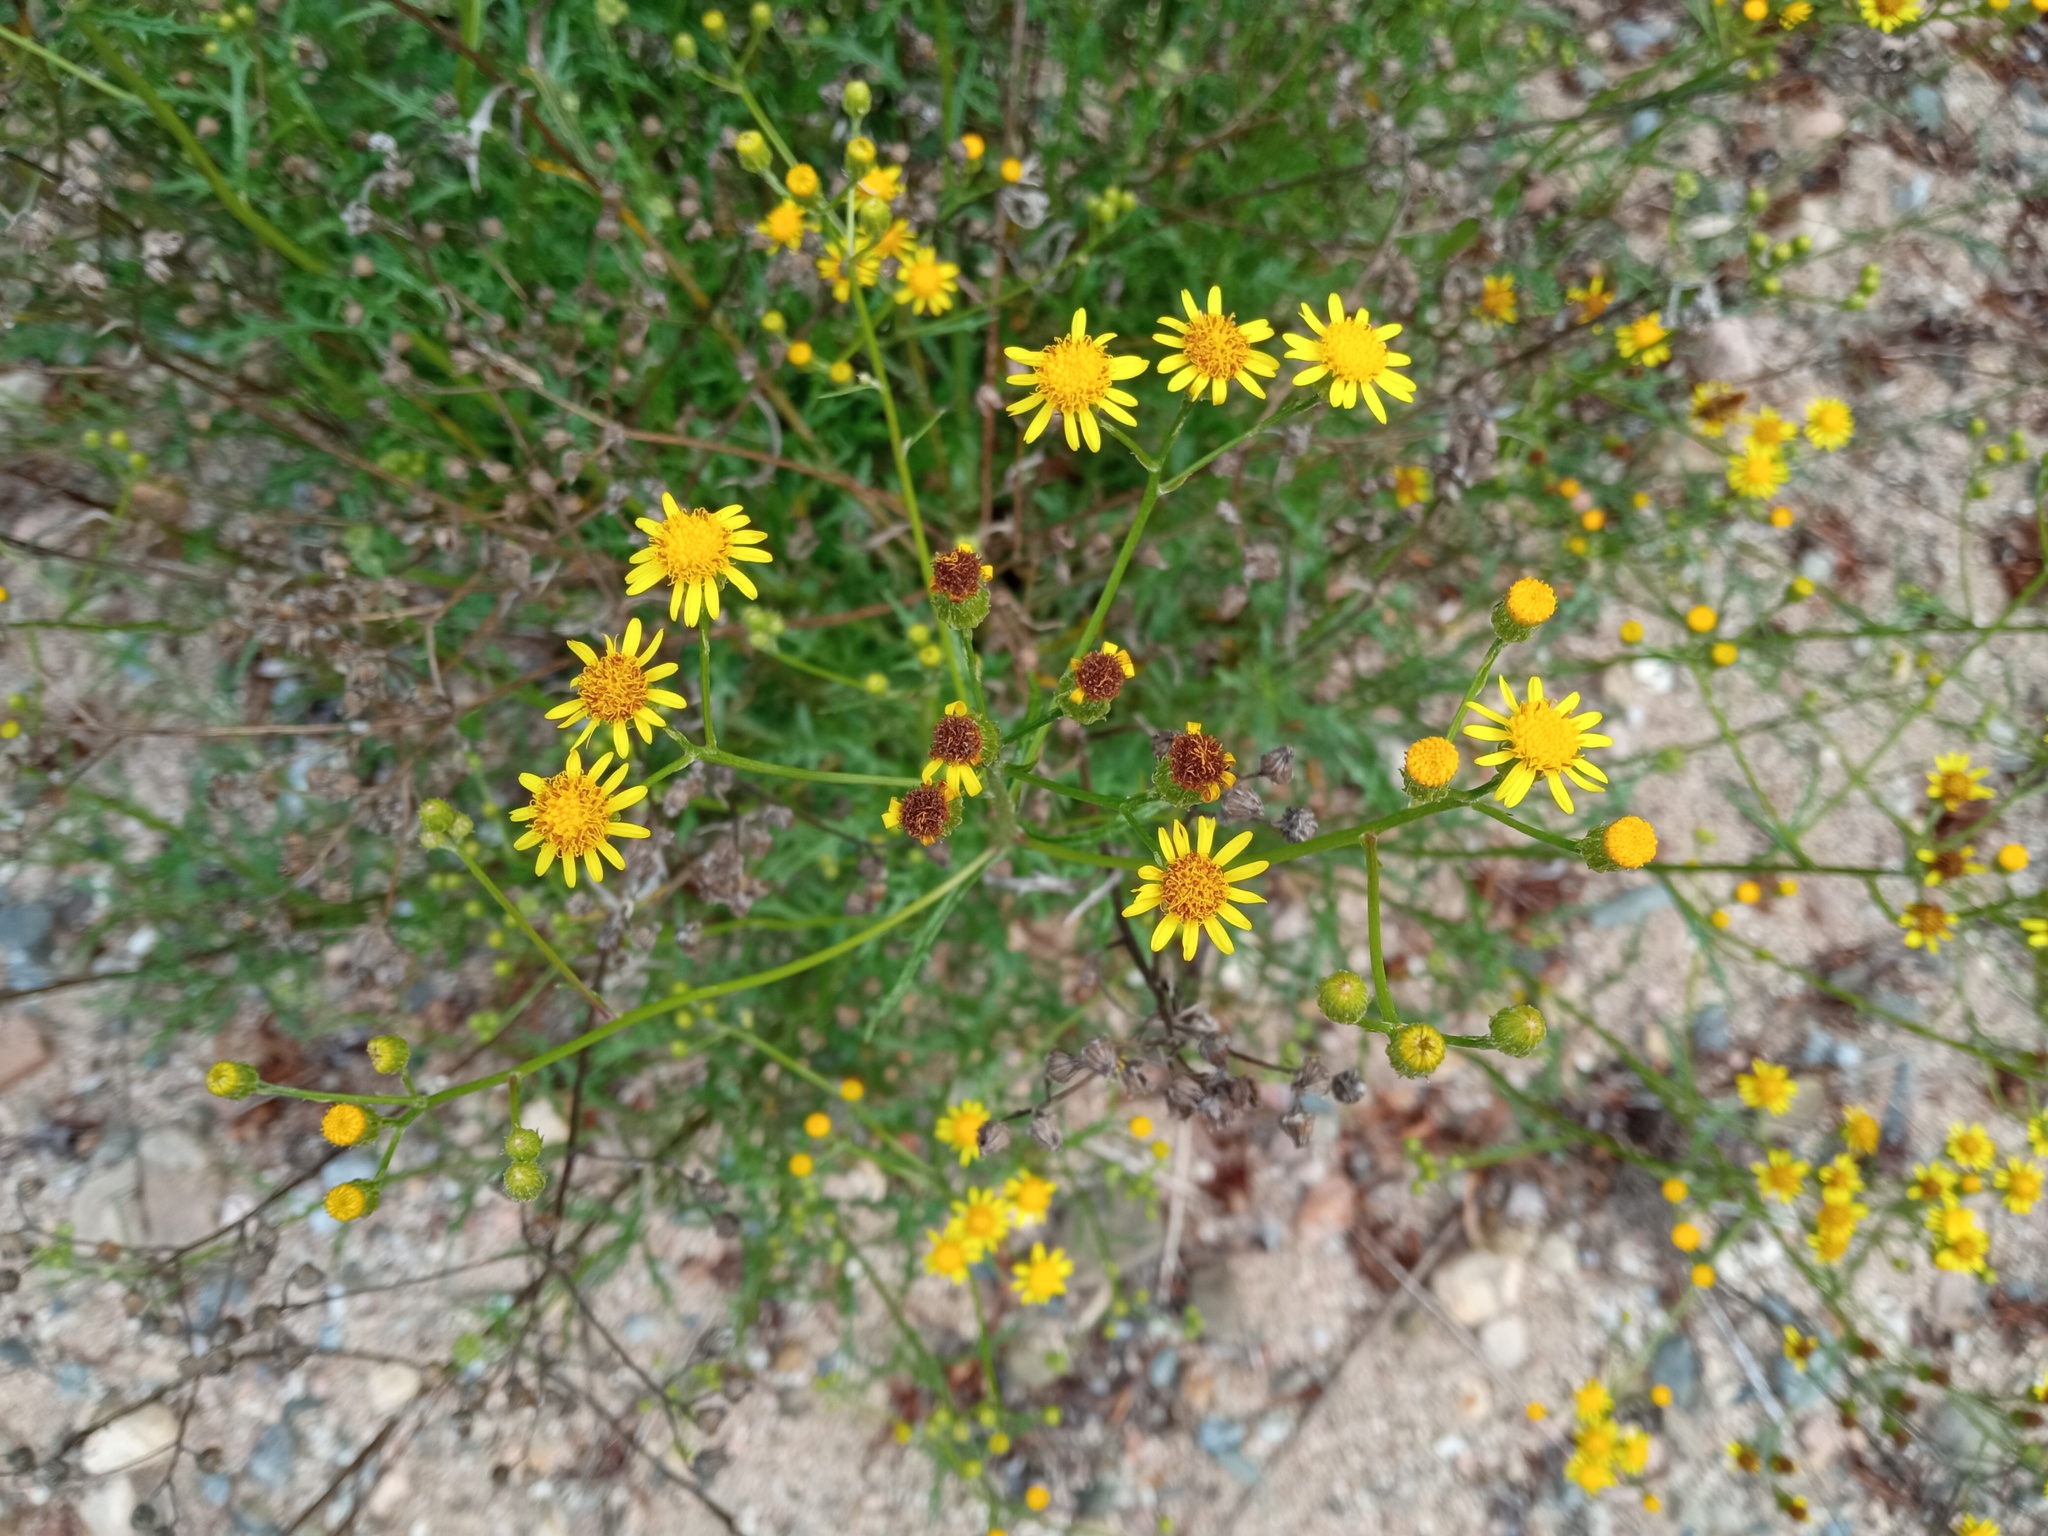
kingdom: Plantae
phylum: Tracheophyta
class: Magnoliopsida
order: Asterales
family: Asteraceae
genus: Senecio
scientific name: Senecio pterophorus
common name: Shoddy ragwort
